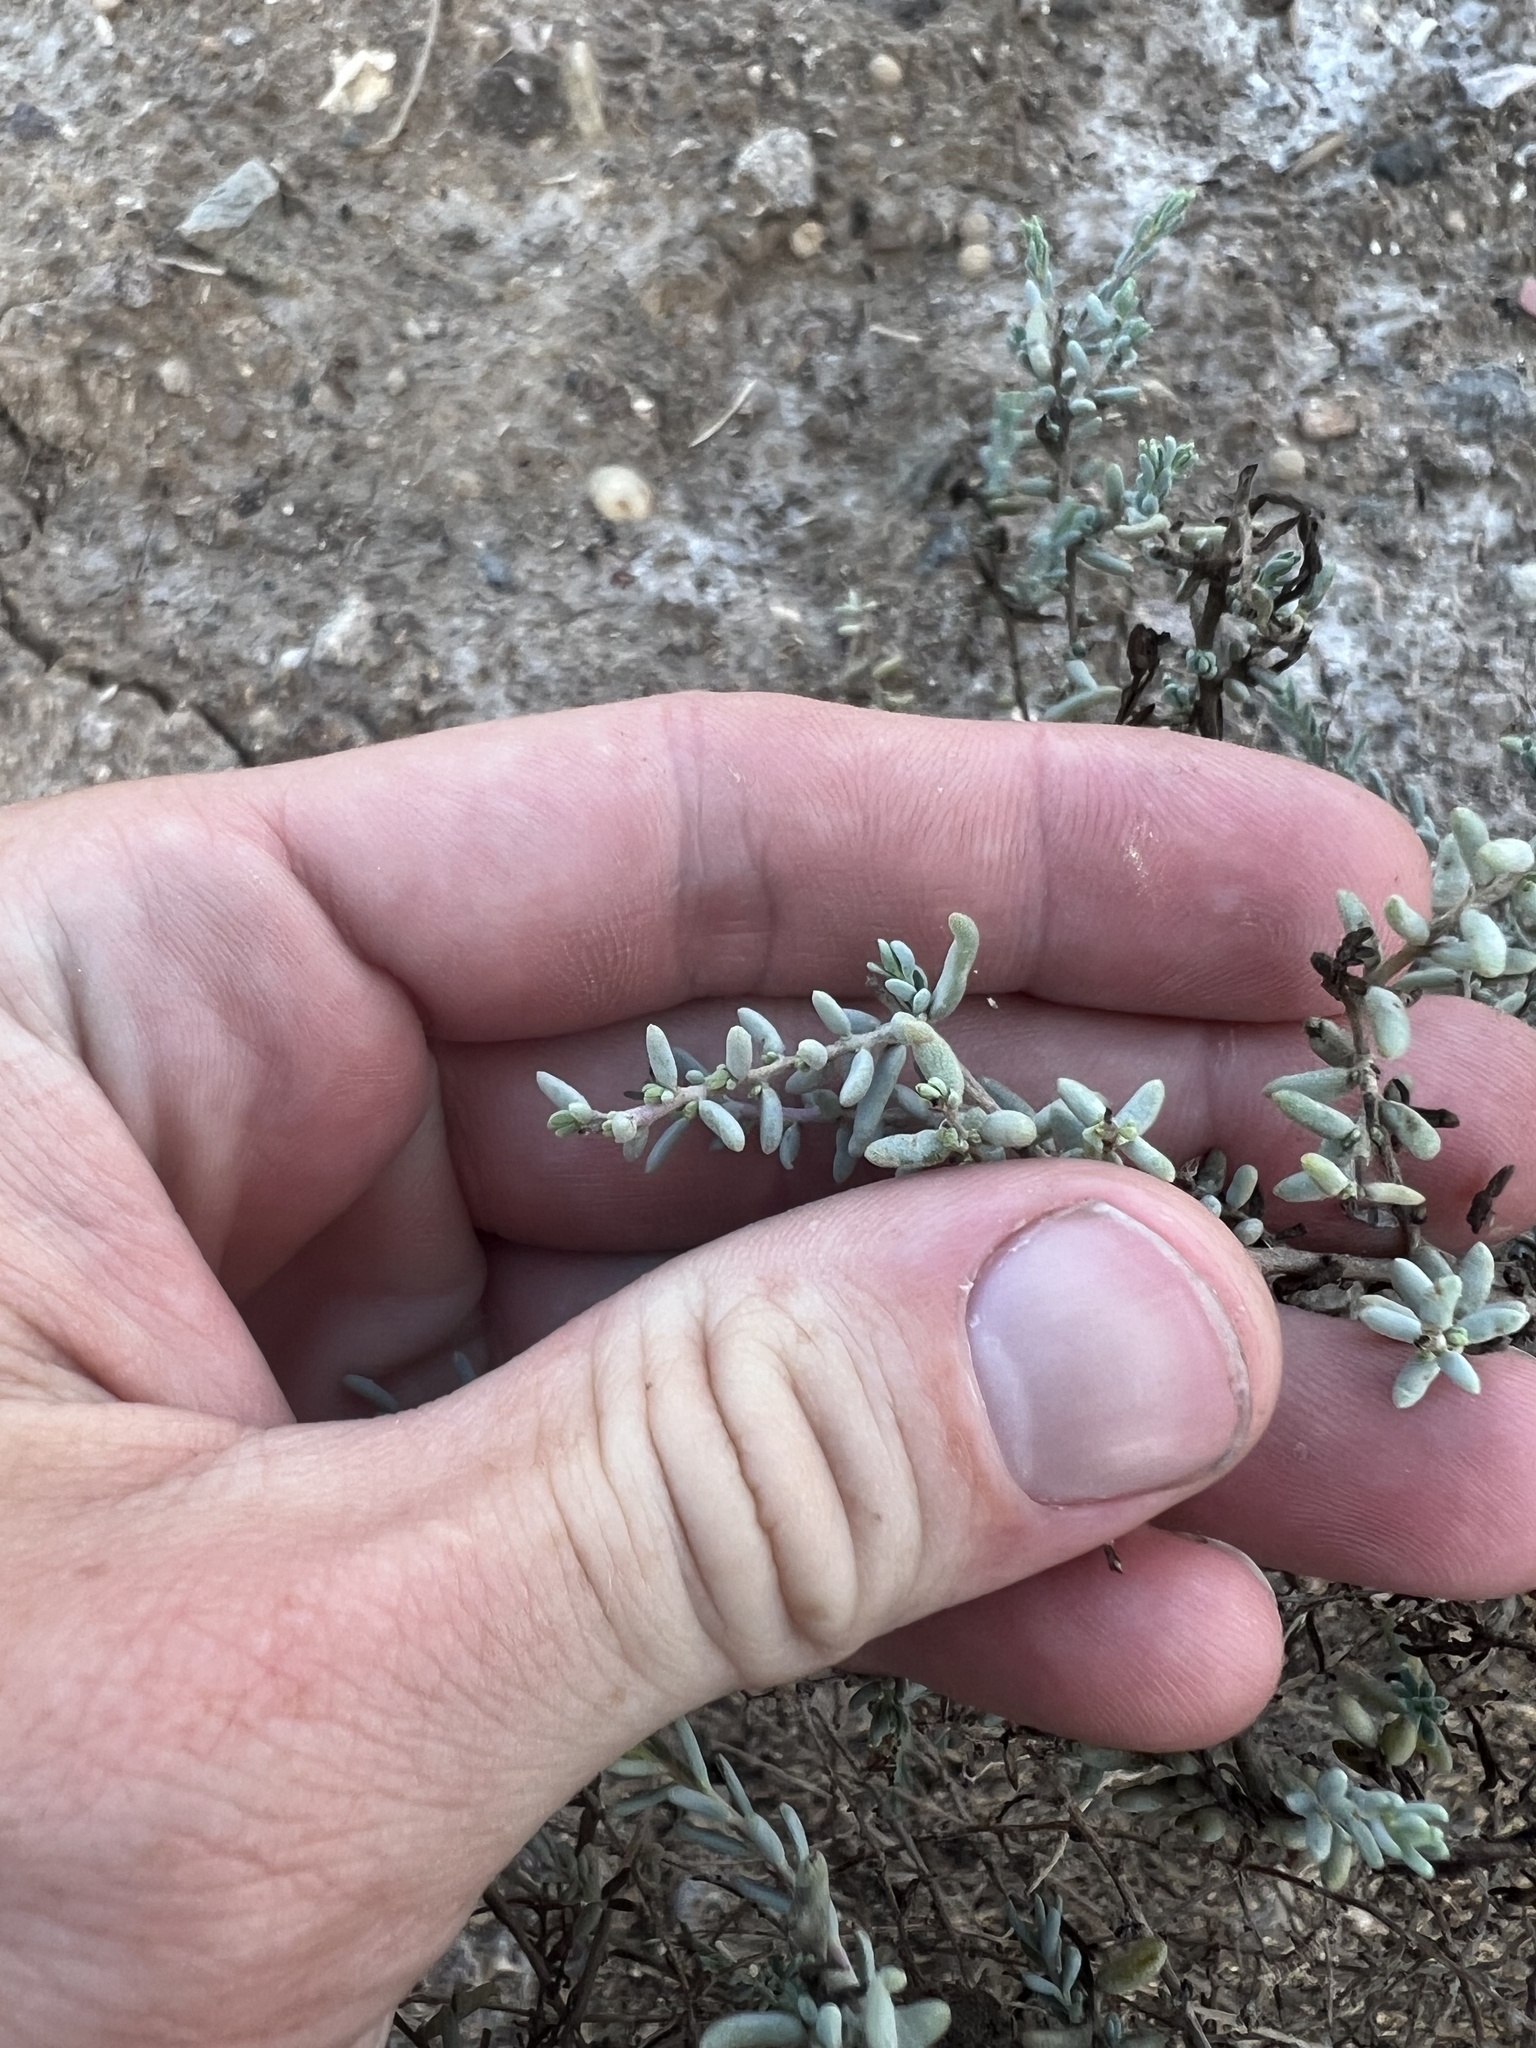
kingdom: Plantae
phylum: Tracheophyta
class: Magnoliopsida
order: Caryophyllales
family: Amaranthaceae
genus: Suaeda
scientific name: Suaeda nigra
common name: Bush seepweed
